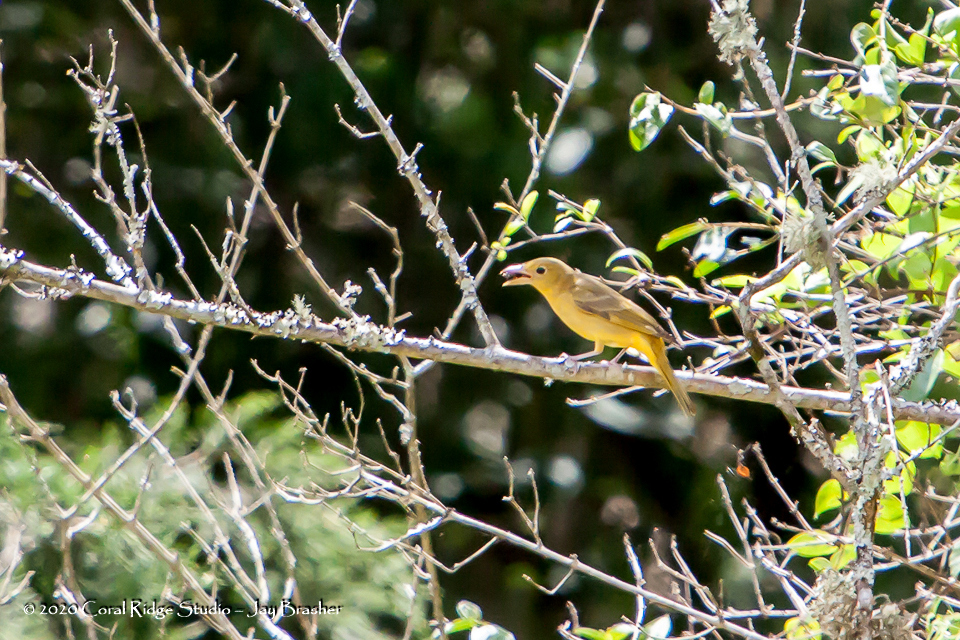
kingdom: Animalia
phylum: Chordata
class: Aves
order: Passeriformes
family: Cardinalidae
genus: Piranga
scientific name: Piranga rubra
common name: Summer tanager
